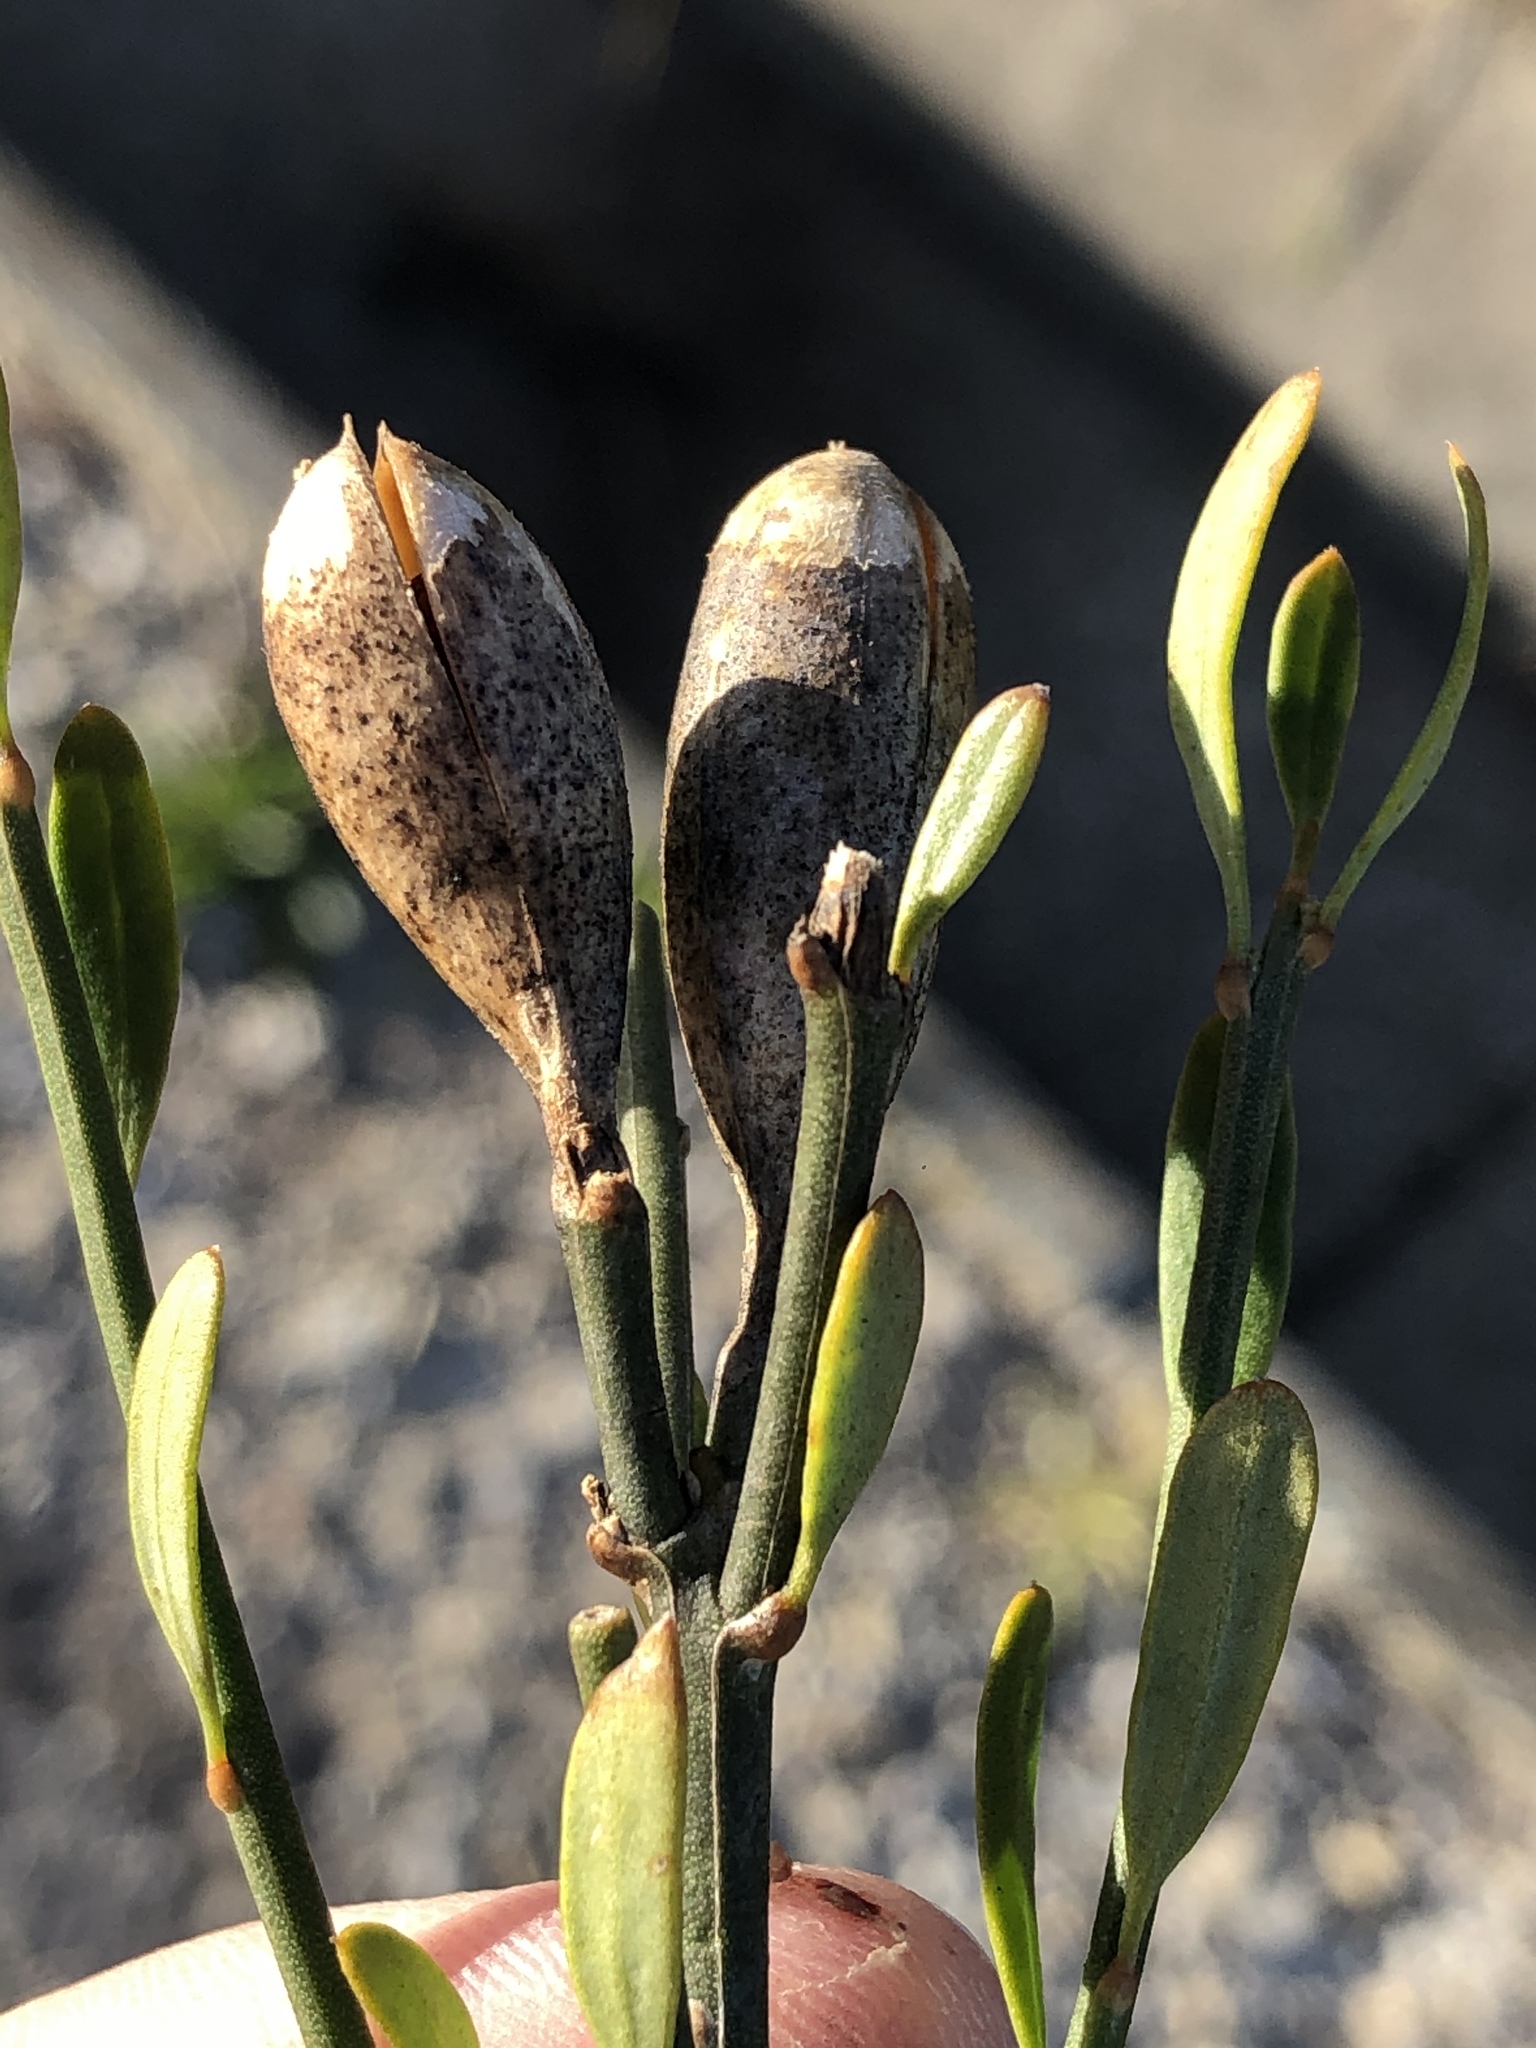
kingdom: Plantae
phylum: Tracheophyta
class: Magnoliopsida
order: Solanales
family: Montiniaceae
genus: Montinia
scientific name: Montinia caryophyllacea
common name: Wild clove-bush
